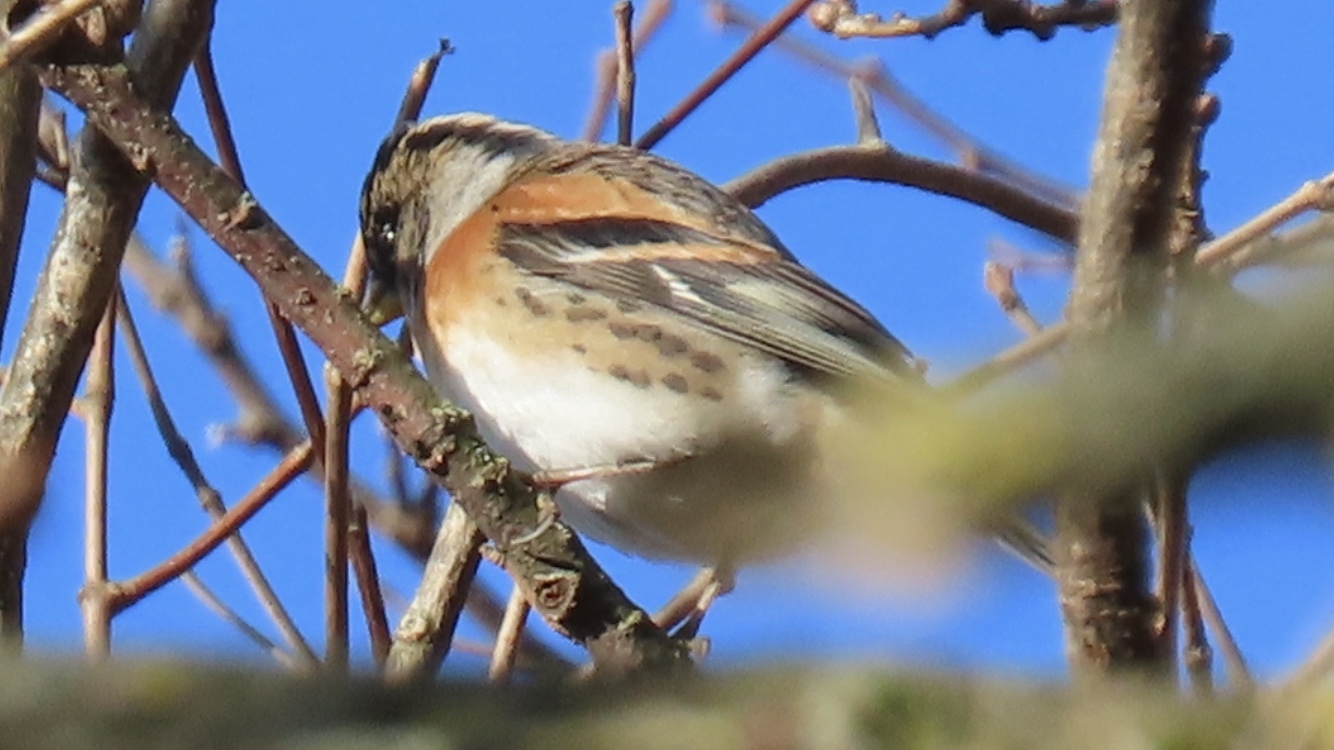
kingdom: Animalia
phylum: Chordata
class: Aves
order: Passeriformes
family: Fringillidae
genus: Fringilla
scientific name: Fringilla montifringilla
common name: Brambling
